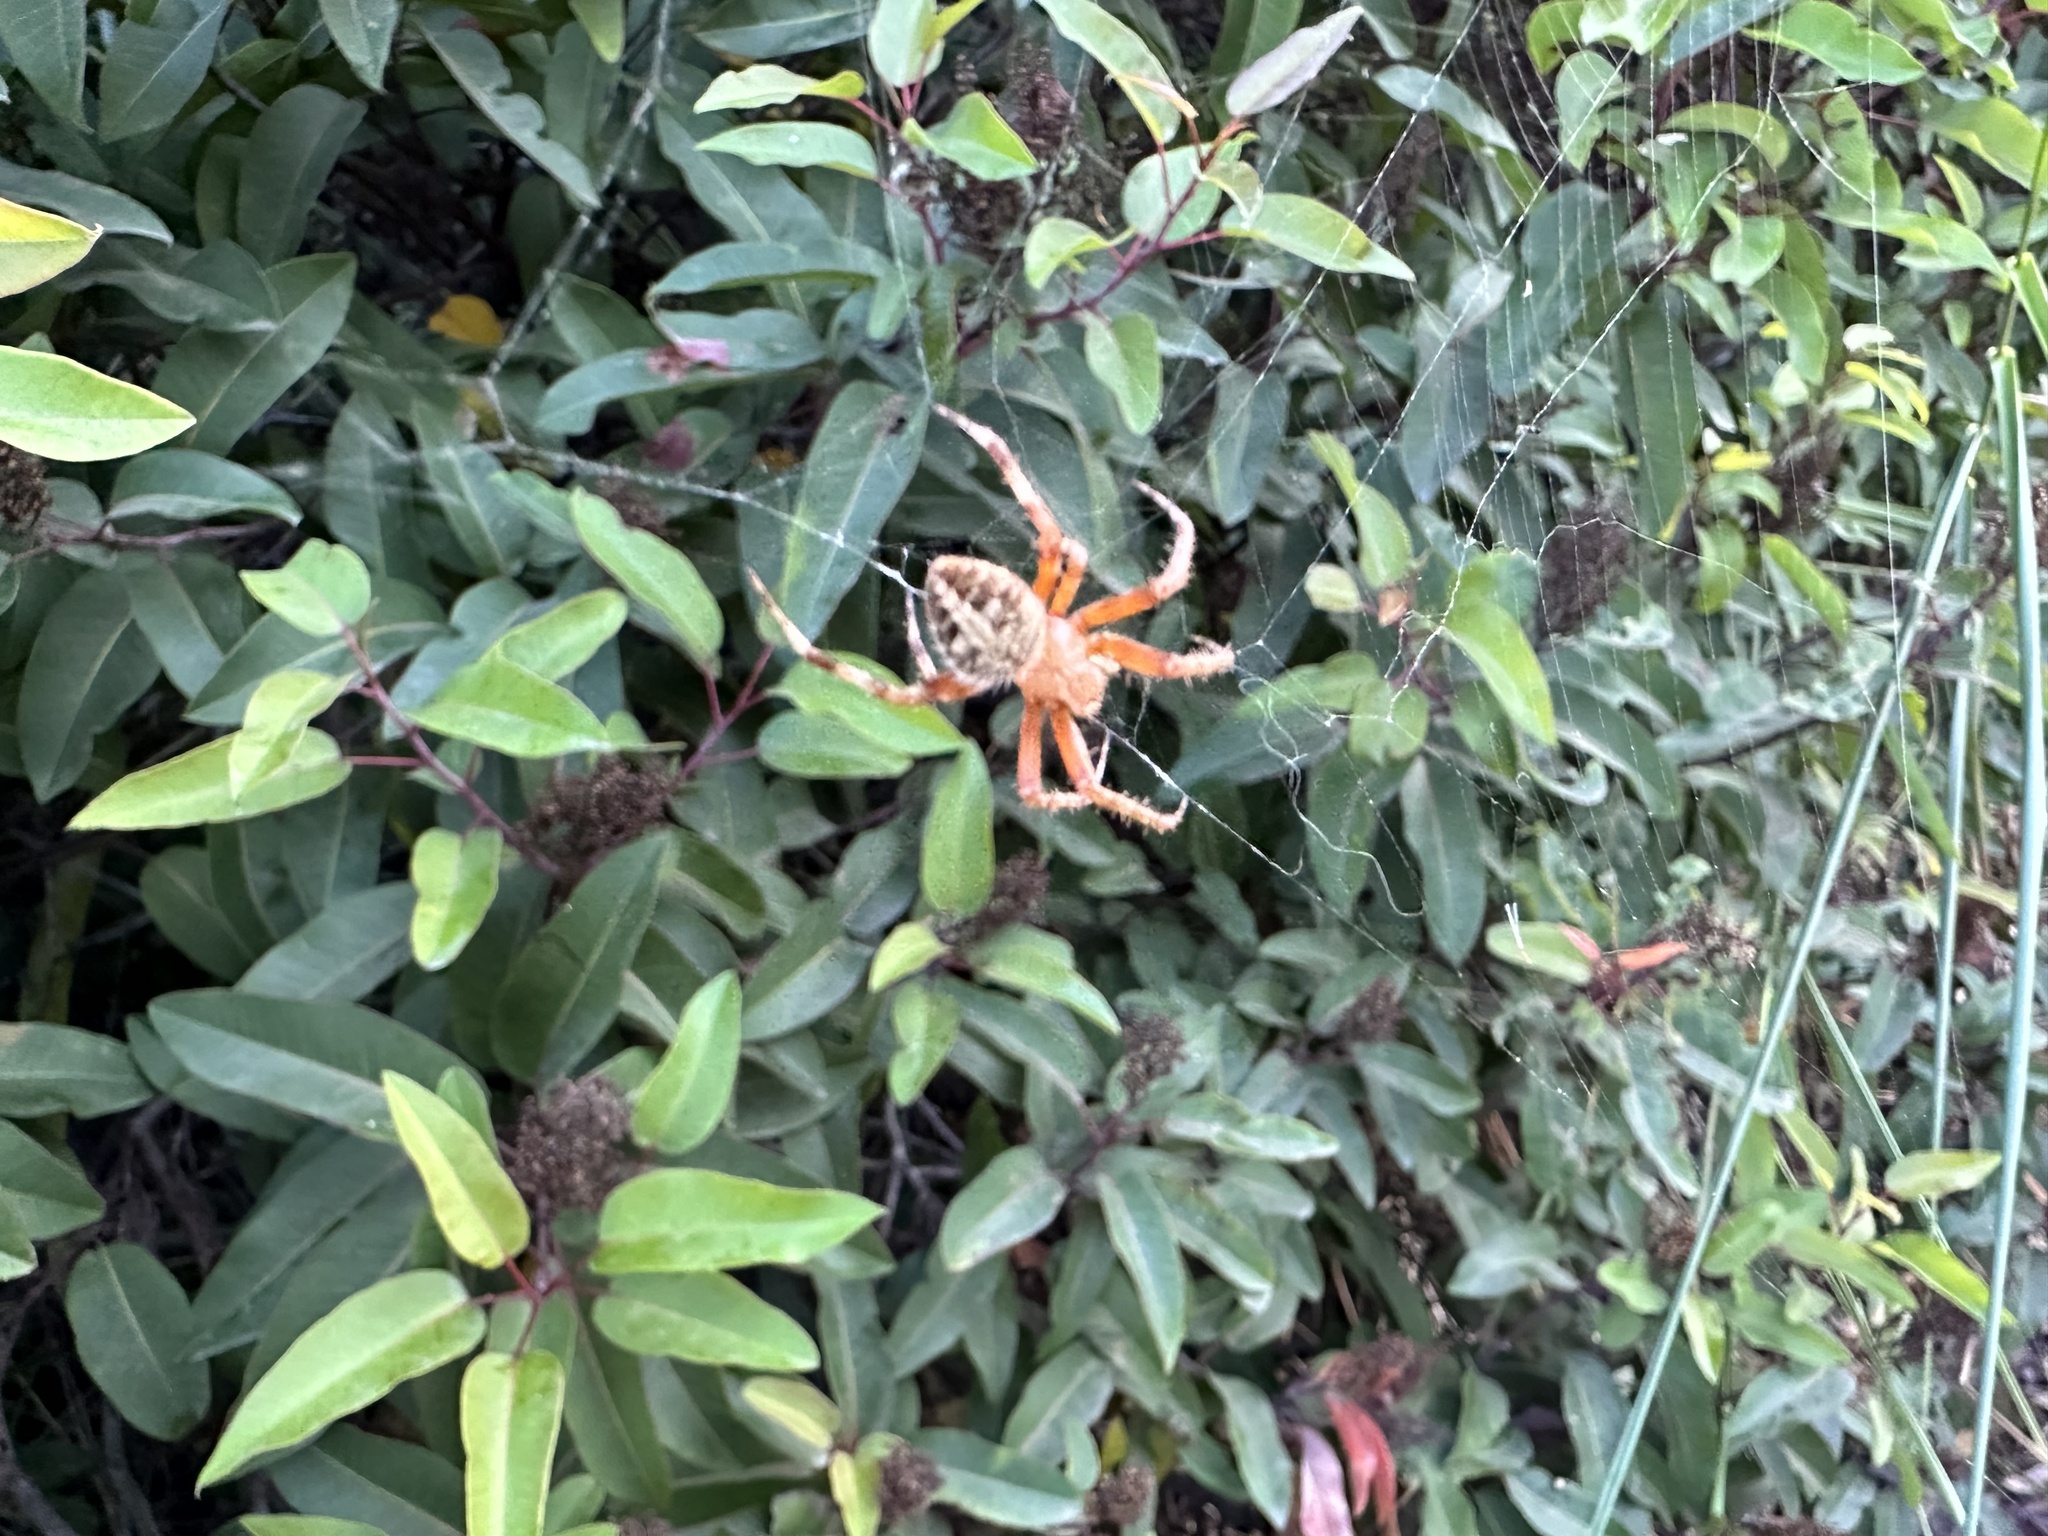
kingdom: Animalia
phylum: Arthropoda
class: Arachnida
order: Araneae
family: Araneidae
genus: Neoscona
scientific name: Neoscona crucifera
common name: Spotted orbweaver
